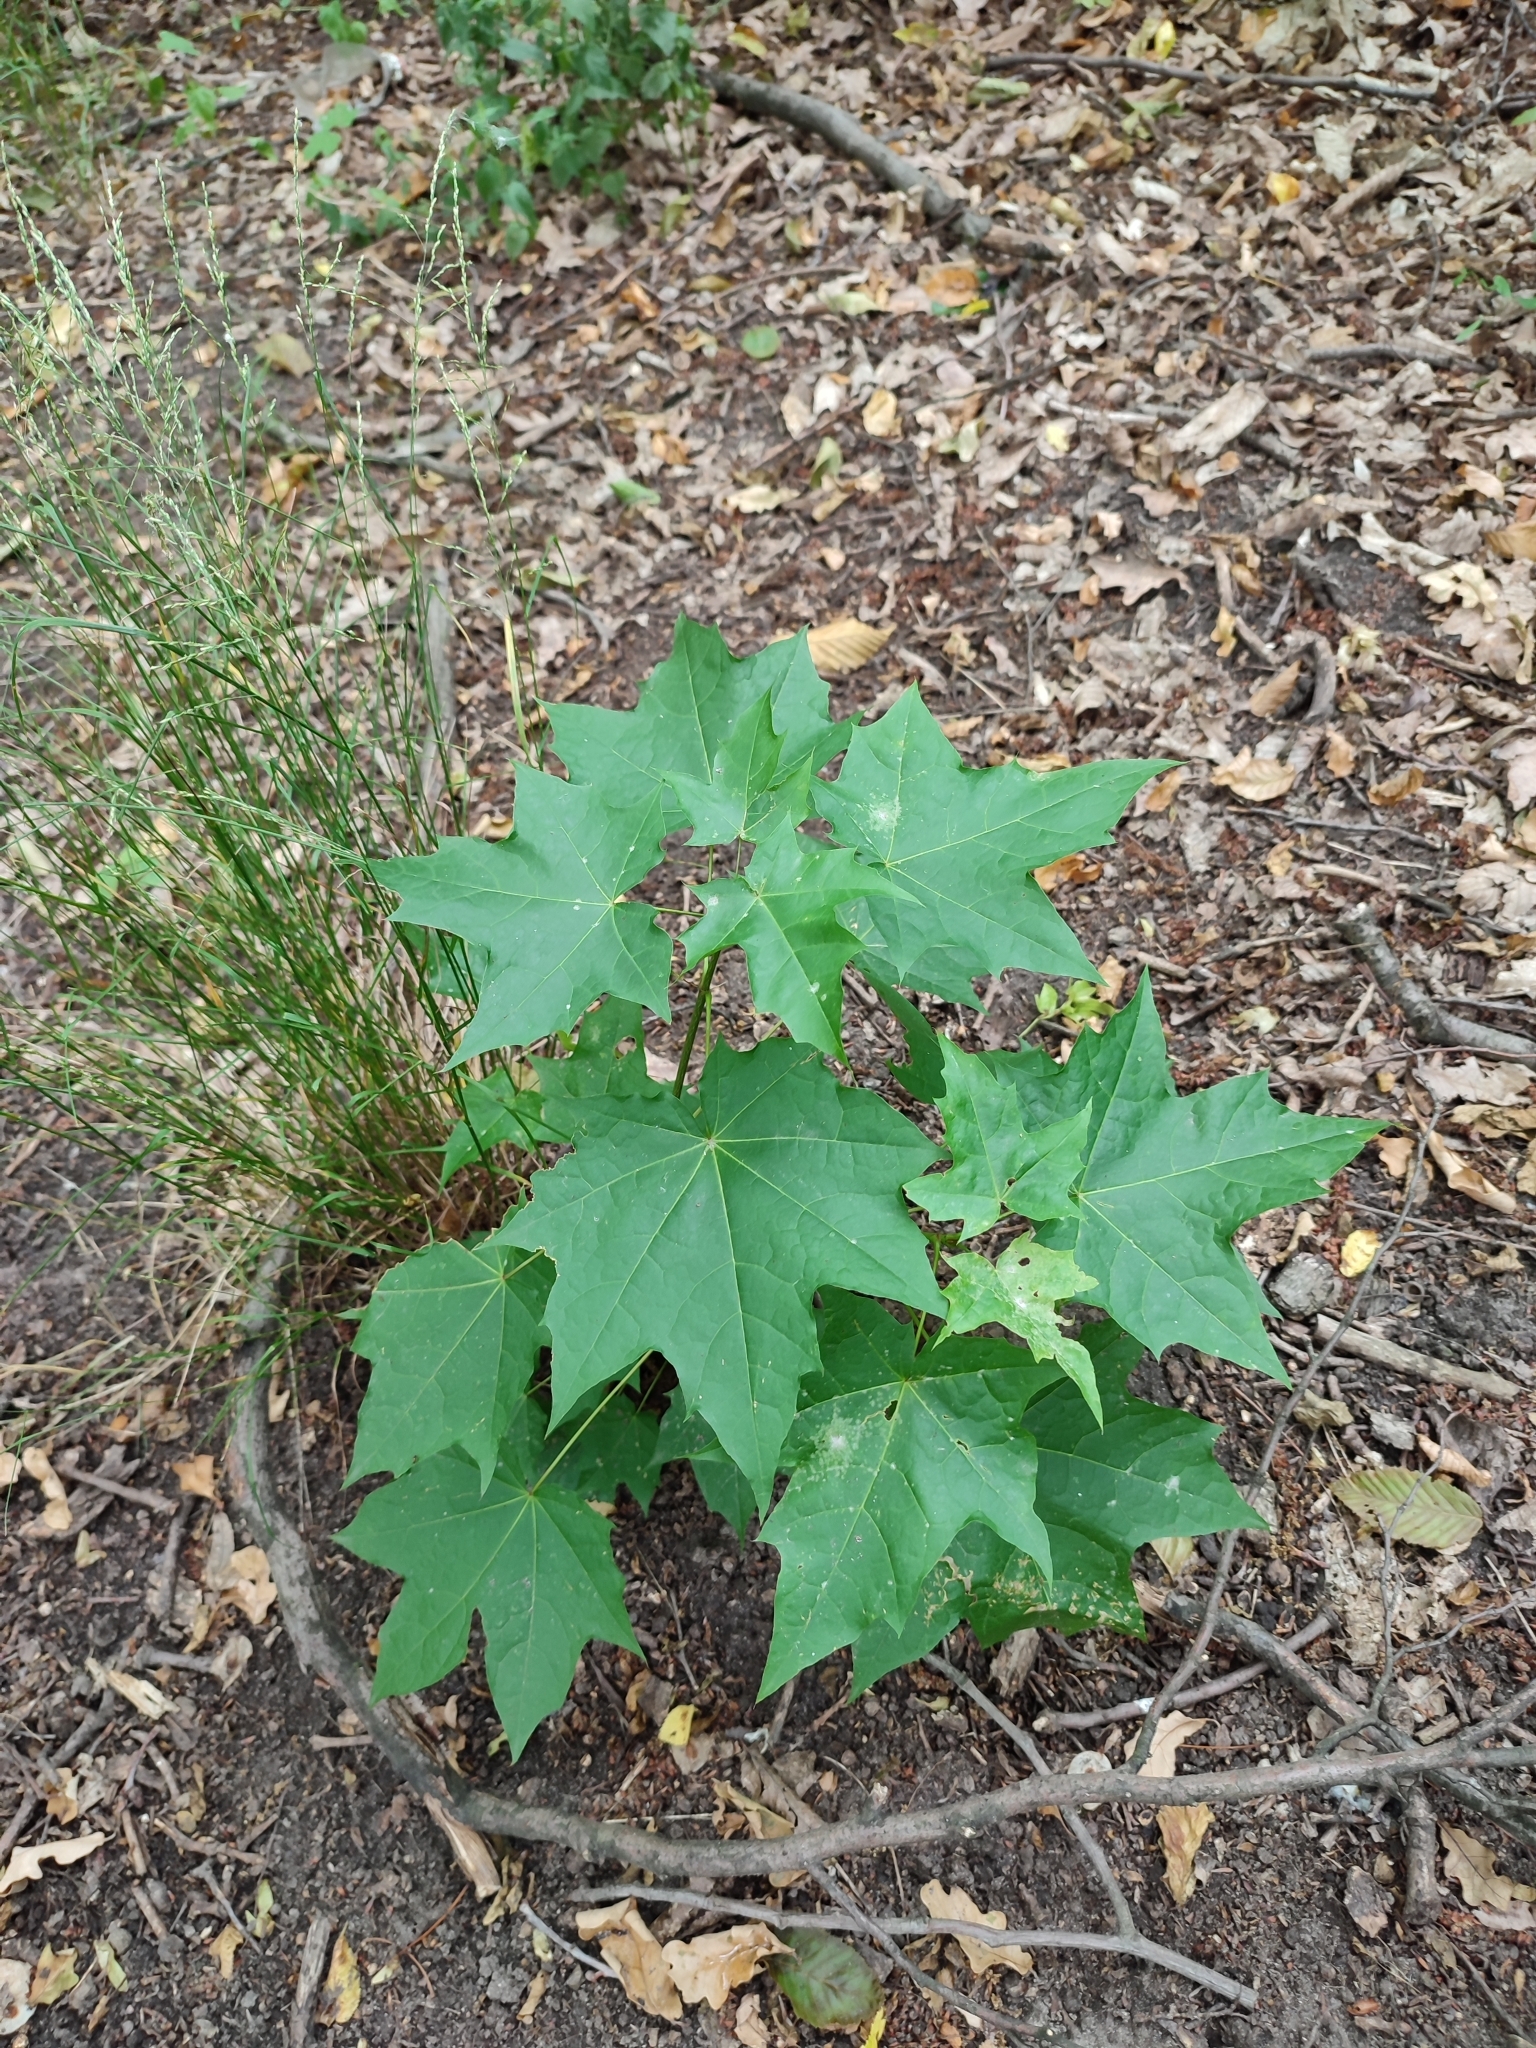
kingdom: Plantae
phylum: Tracheophyta
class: Magnoliopsida
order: Sapindales
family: Sapindaceae
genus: Acer
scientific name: Acer platanoides
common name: Norway maple
